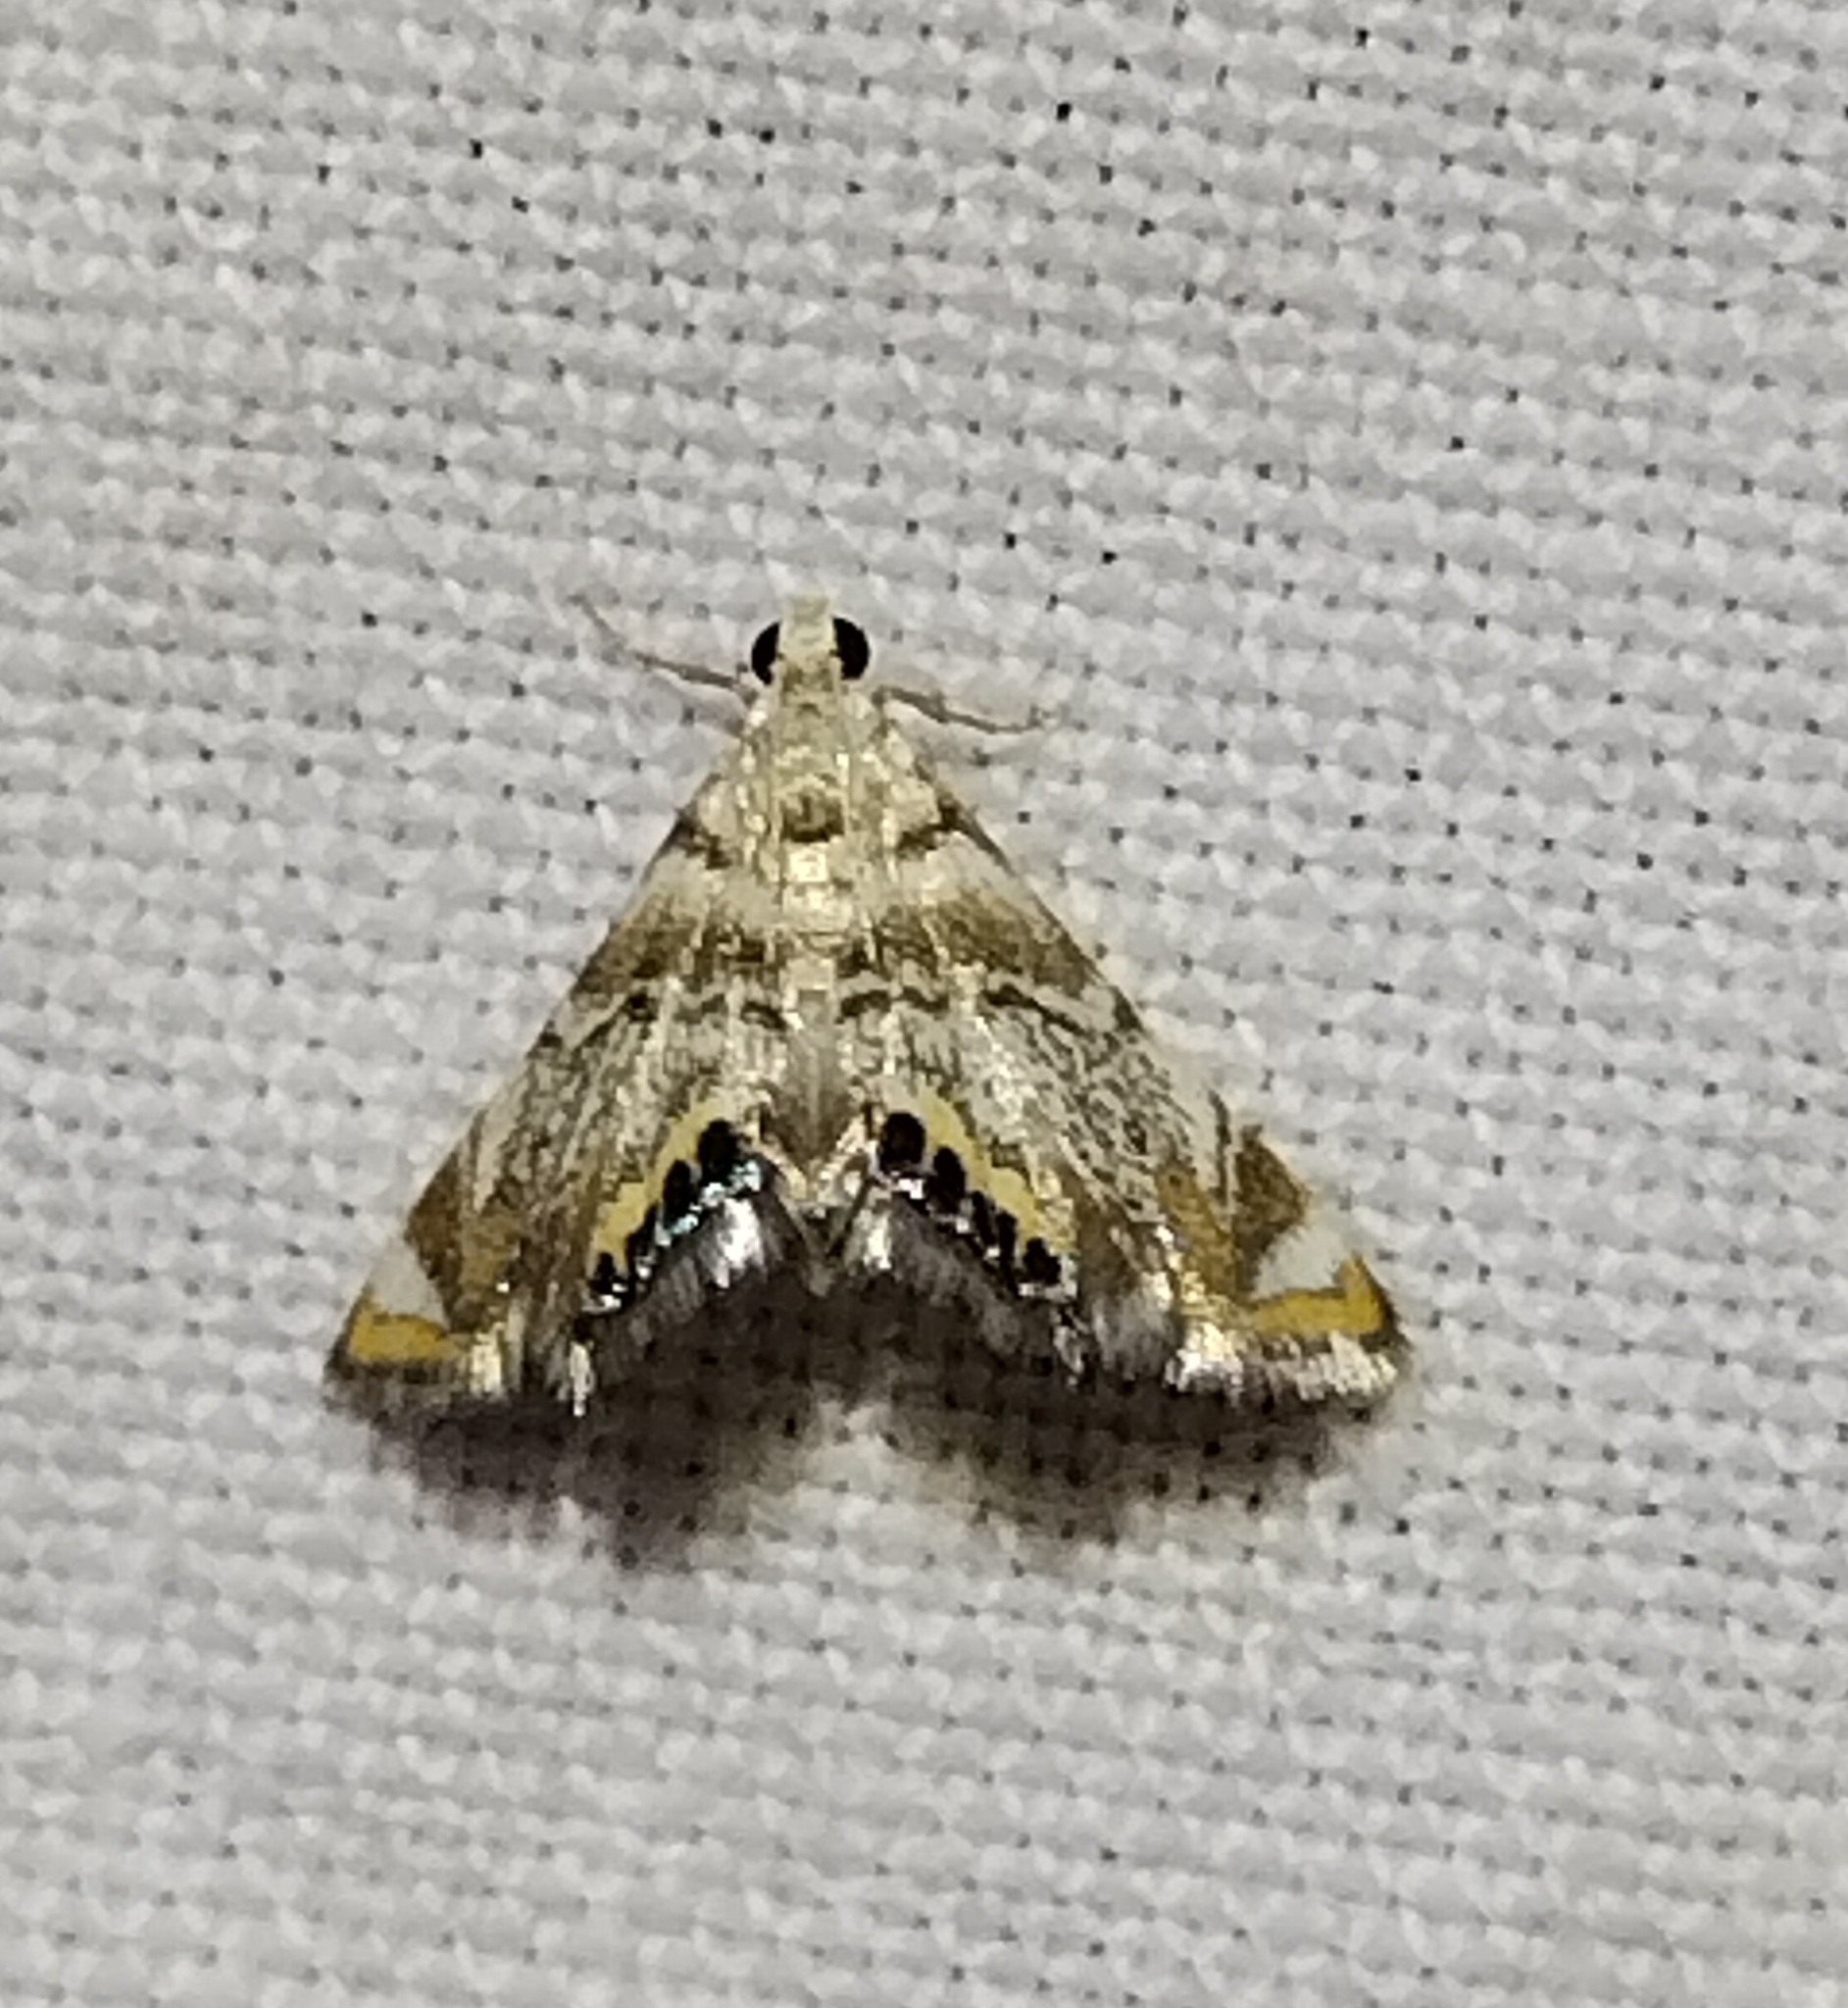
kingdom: Animalia
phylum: Arthropoda
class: Insecta
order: Lepidoptera
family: Crambidae
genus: Eoparargyractis
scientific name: Eoparargyractis irroratalis
